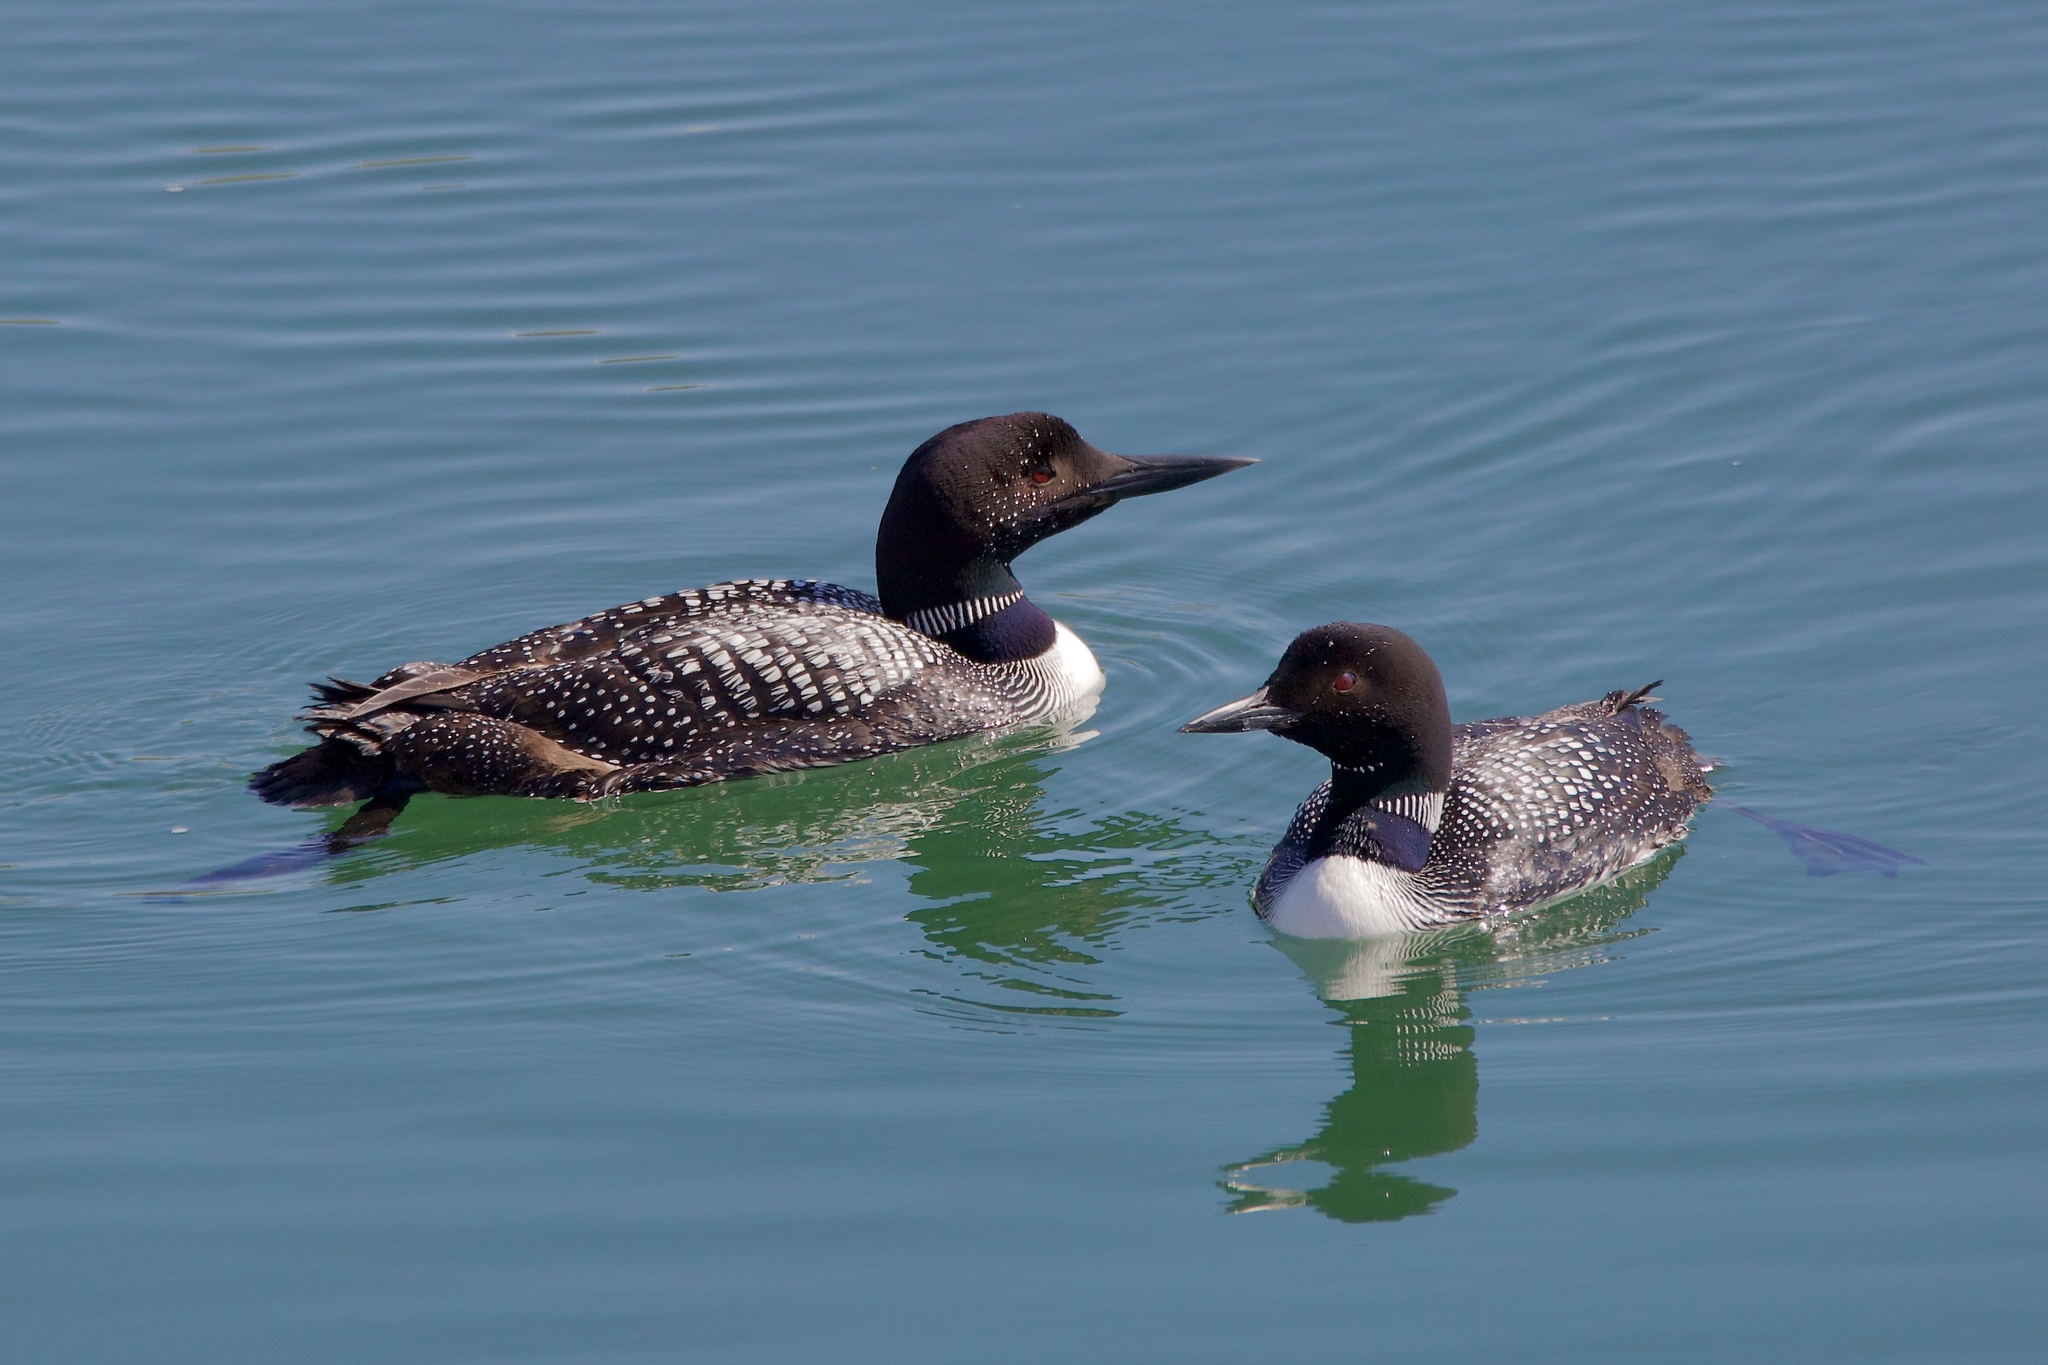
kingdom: Animalia
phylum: Chordata
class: Aves
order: Gaviiformes
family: Gaviidae
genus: Gavia
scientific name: Gavia immer
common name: Common loon
